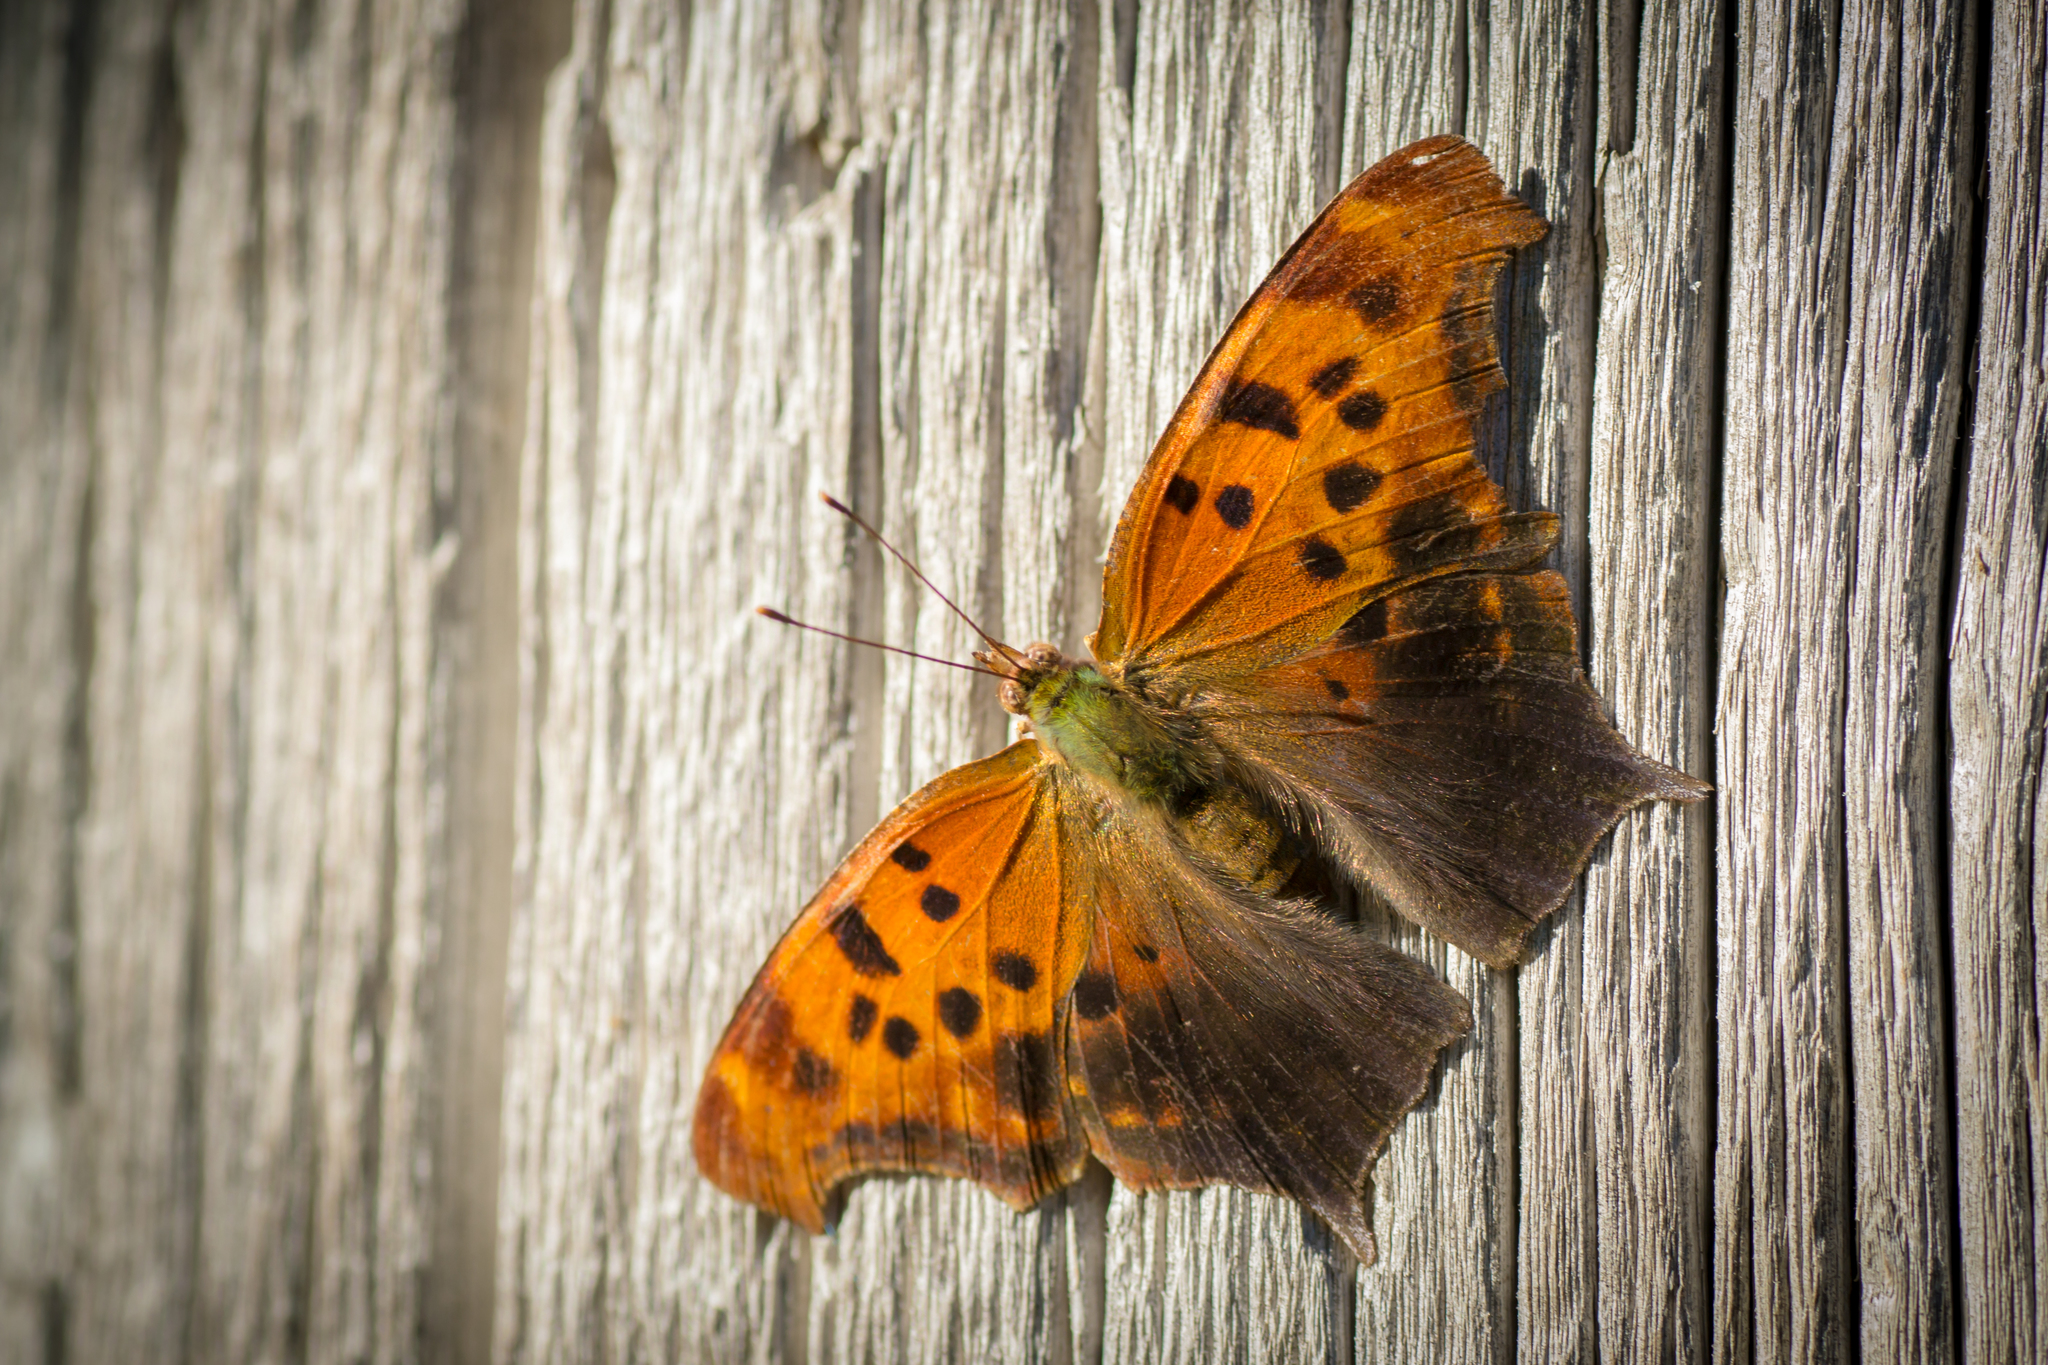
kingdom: Animalia
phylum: Arthropoda
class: Insecta
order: Lepidoptera
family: Nymphalidae
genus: Polygonia
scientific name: Polygonia interrogationis
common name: Question mark
